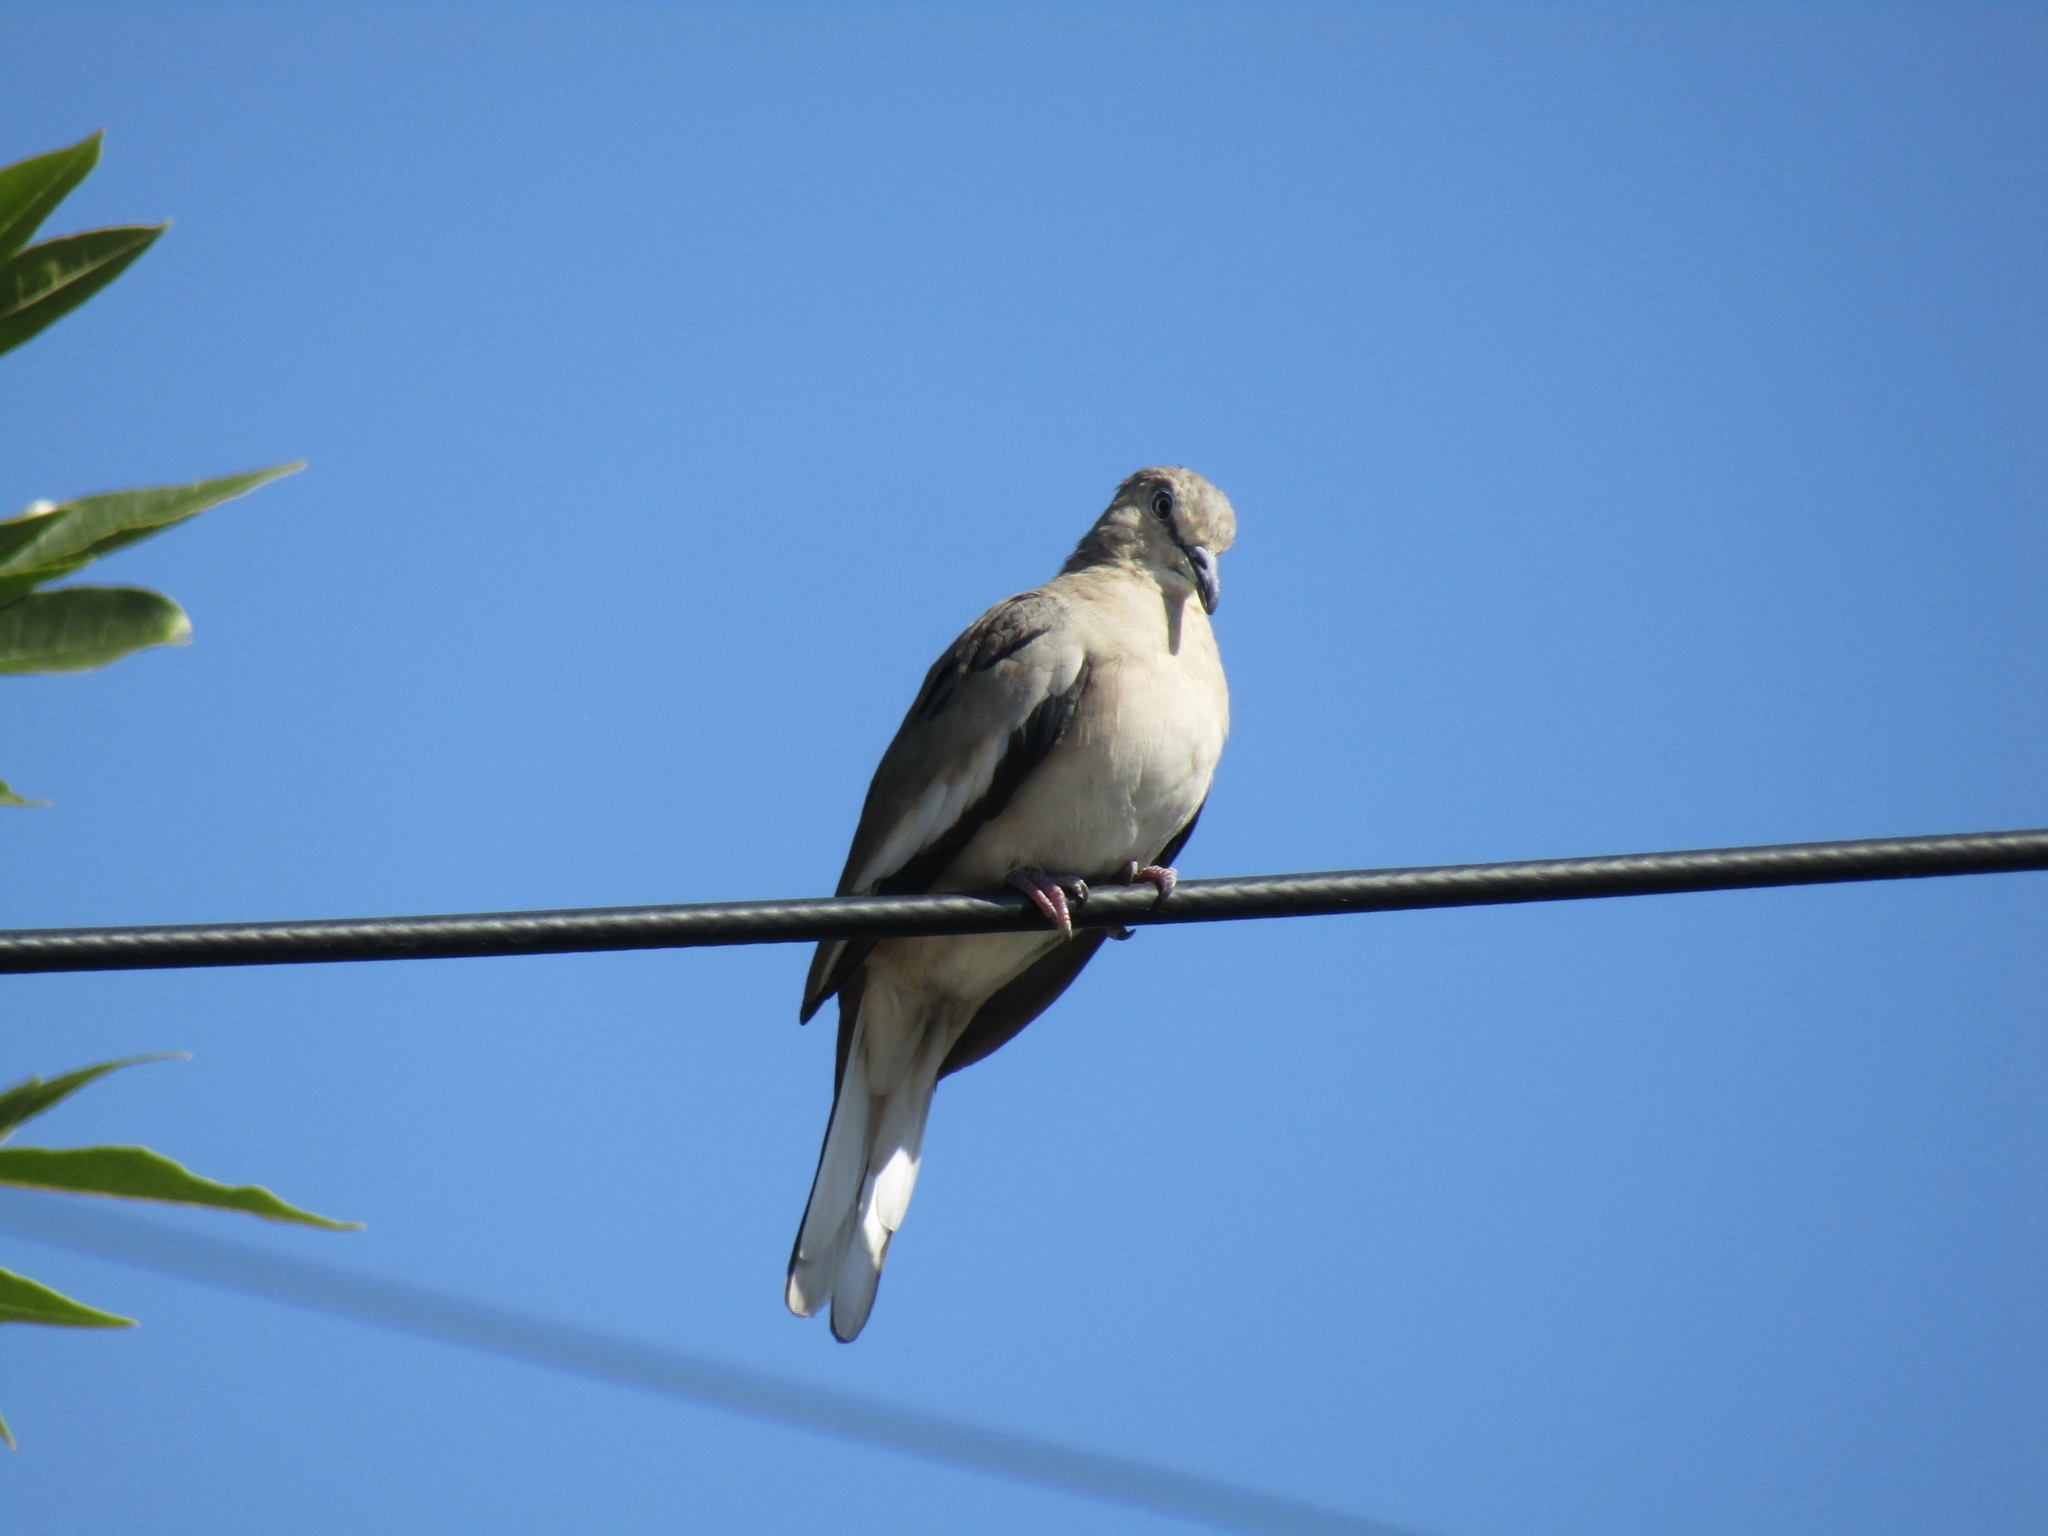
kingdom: Animalia
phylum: Chordata
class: Aves
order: Columbiformes
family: Columbidae
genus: Columbina
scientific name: Columbina picui
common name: Picui ground dove
